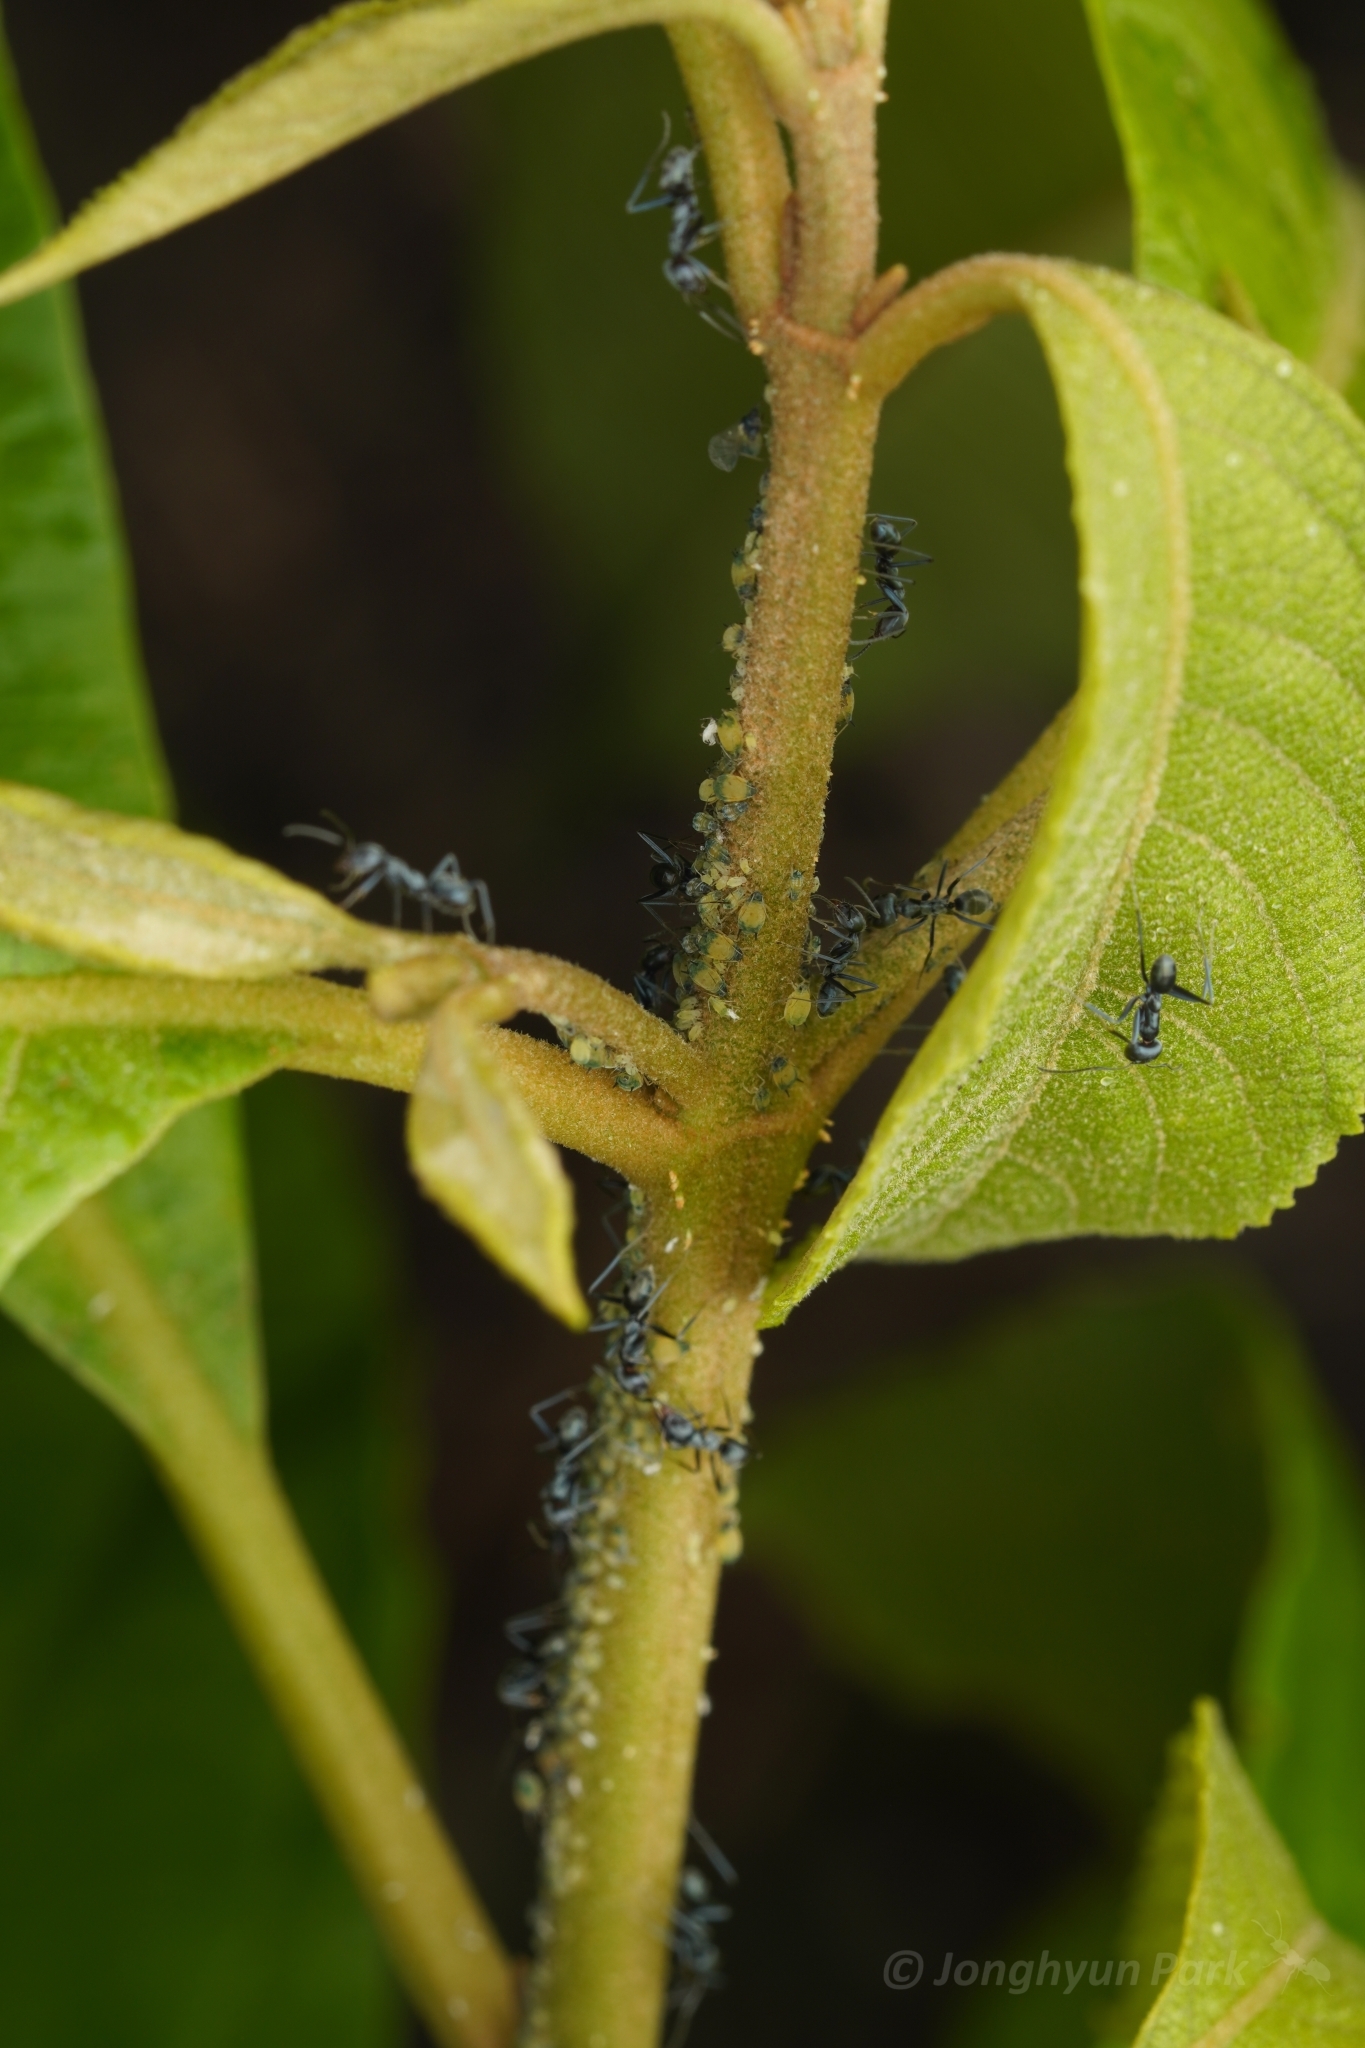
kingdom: Animalia
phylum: Arthropoda
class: Insecta
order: Hymenoptera
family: Formicidae
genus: Iridomyrmex
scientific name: Iridomyrmex anceps
